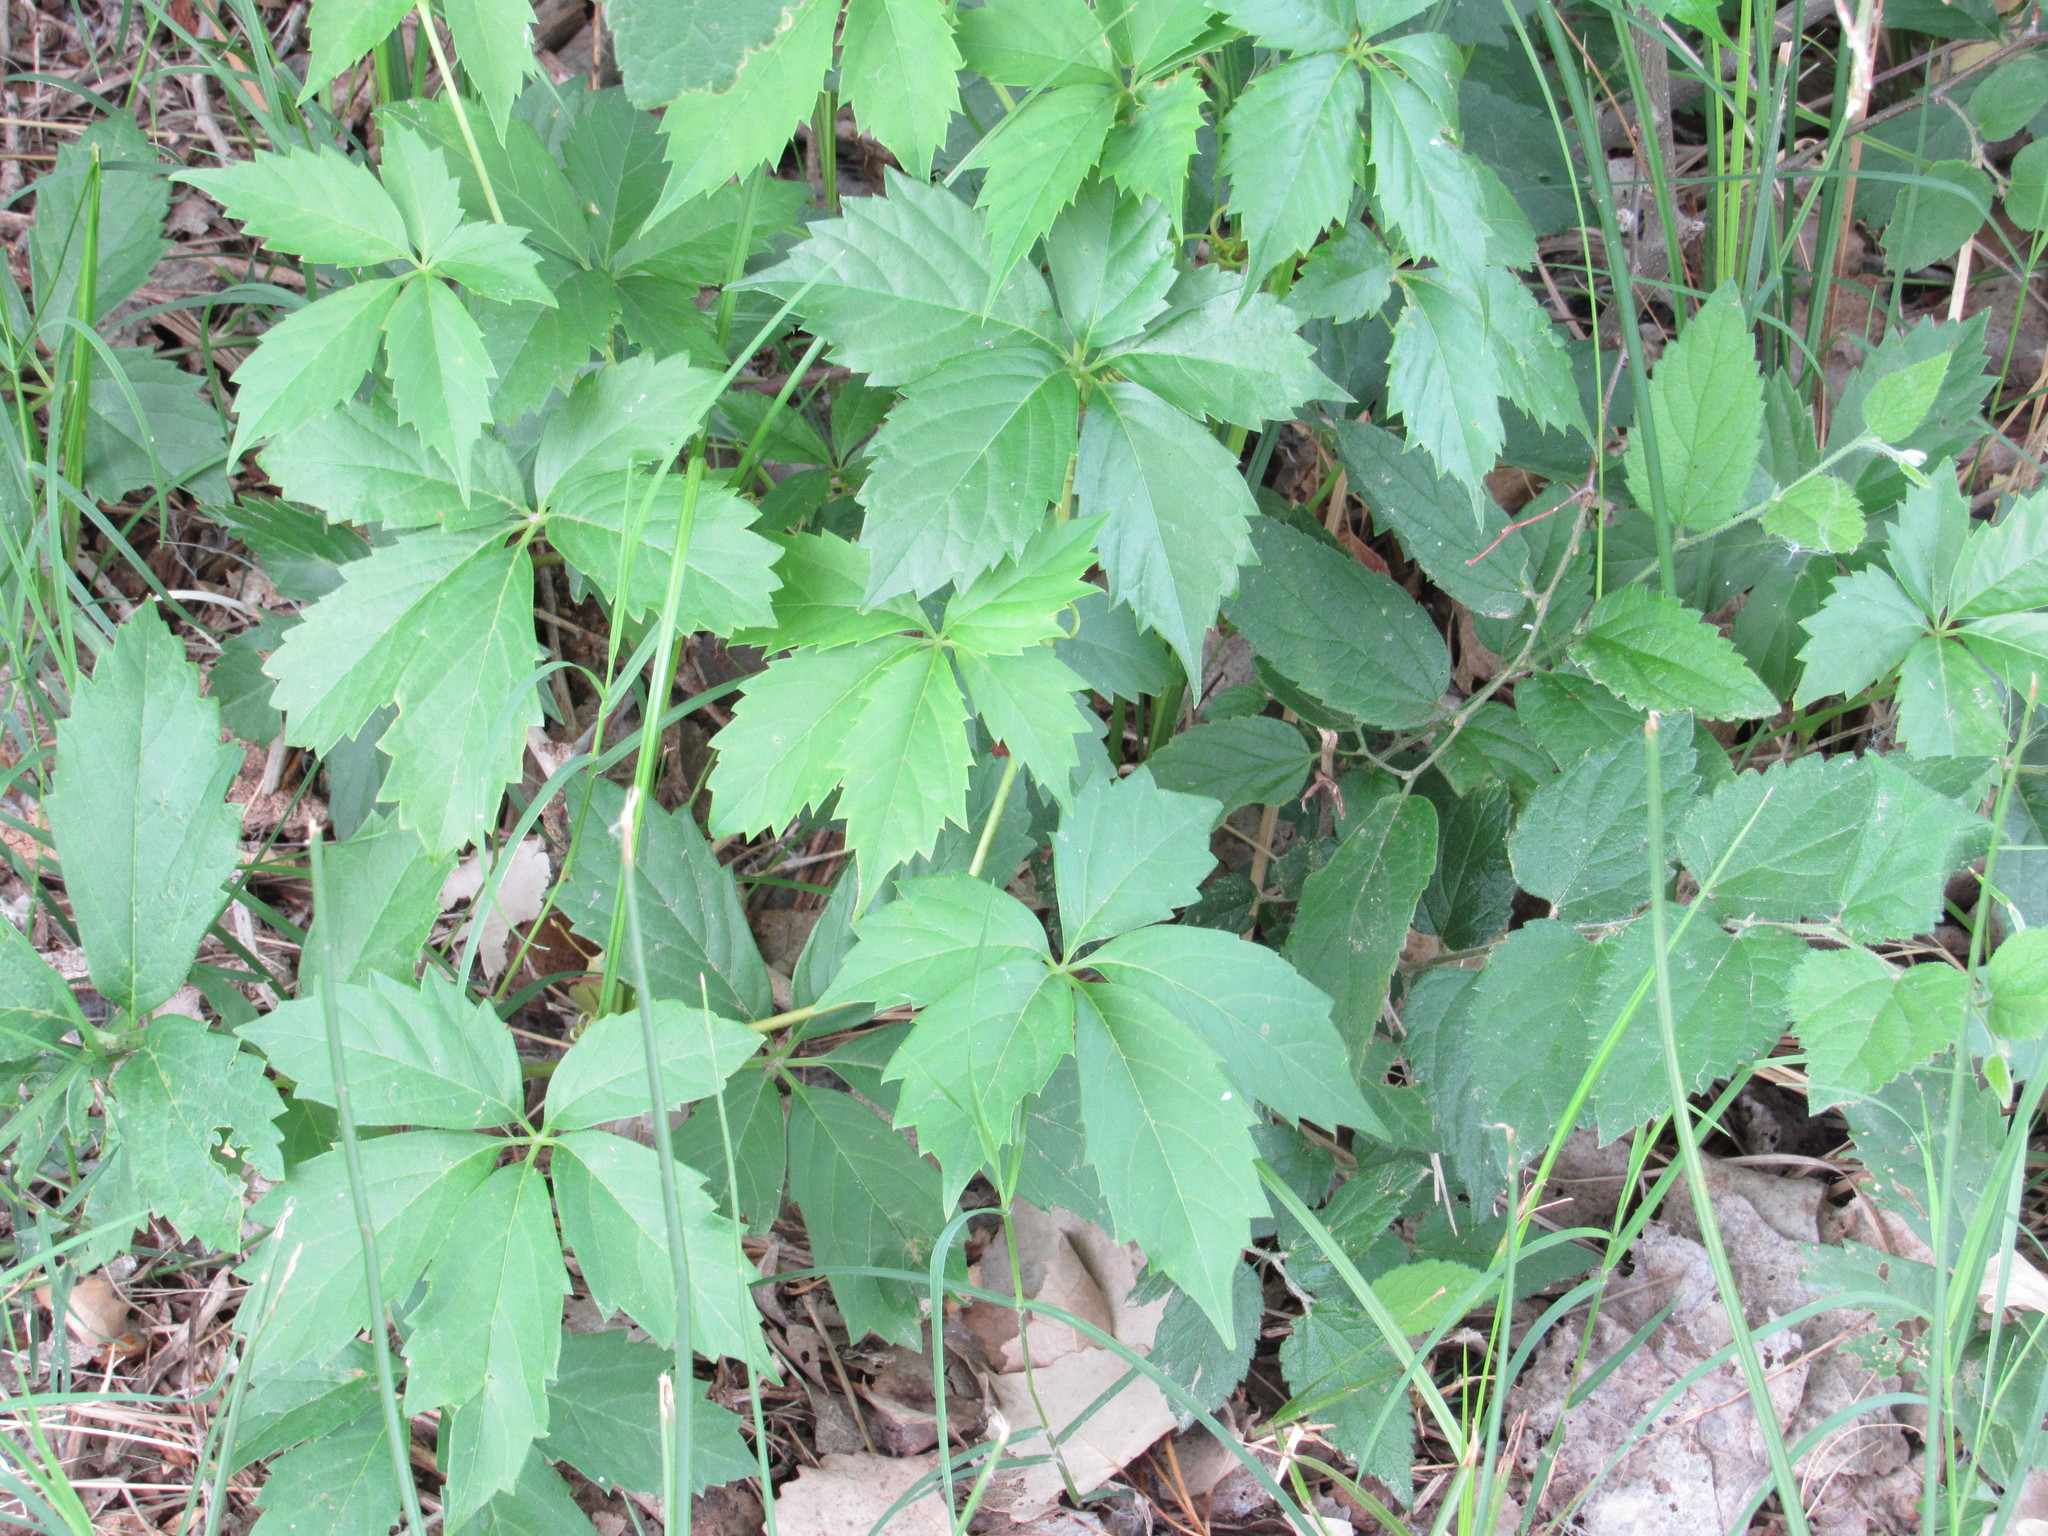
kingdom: Plantae
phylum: Tracheophyta
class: Magnoliopsida
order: Vitales
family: Vitaceae
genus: Parthenocissus
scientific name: Parthenocissus quinquefolia
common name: Virginia-creeper
